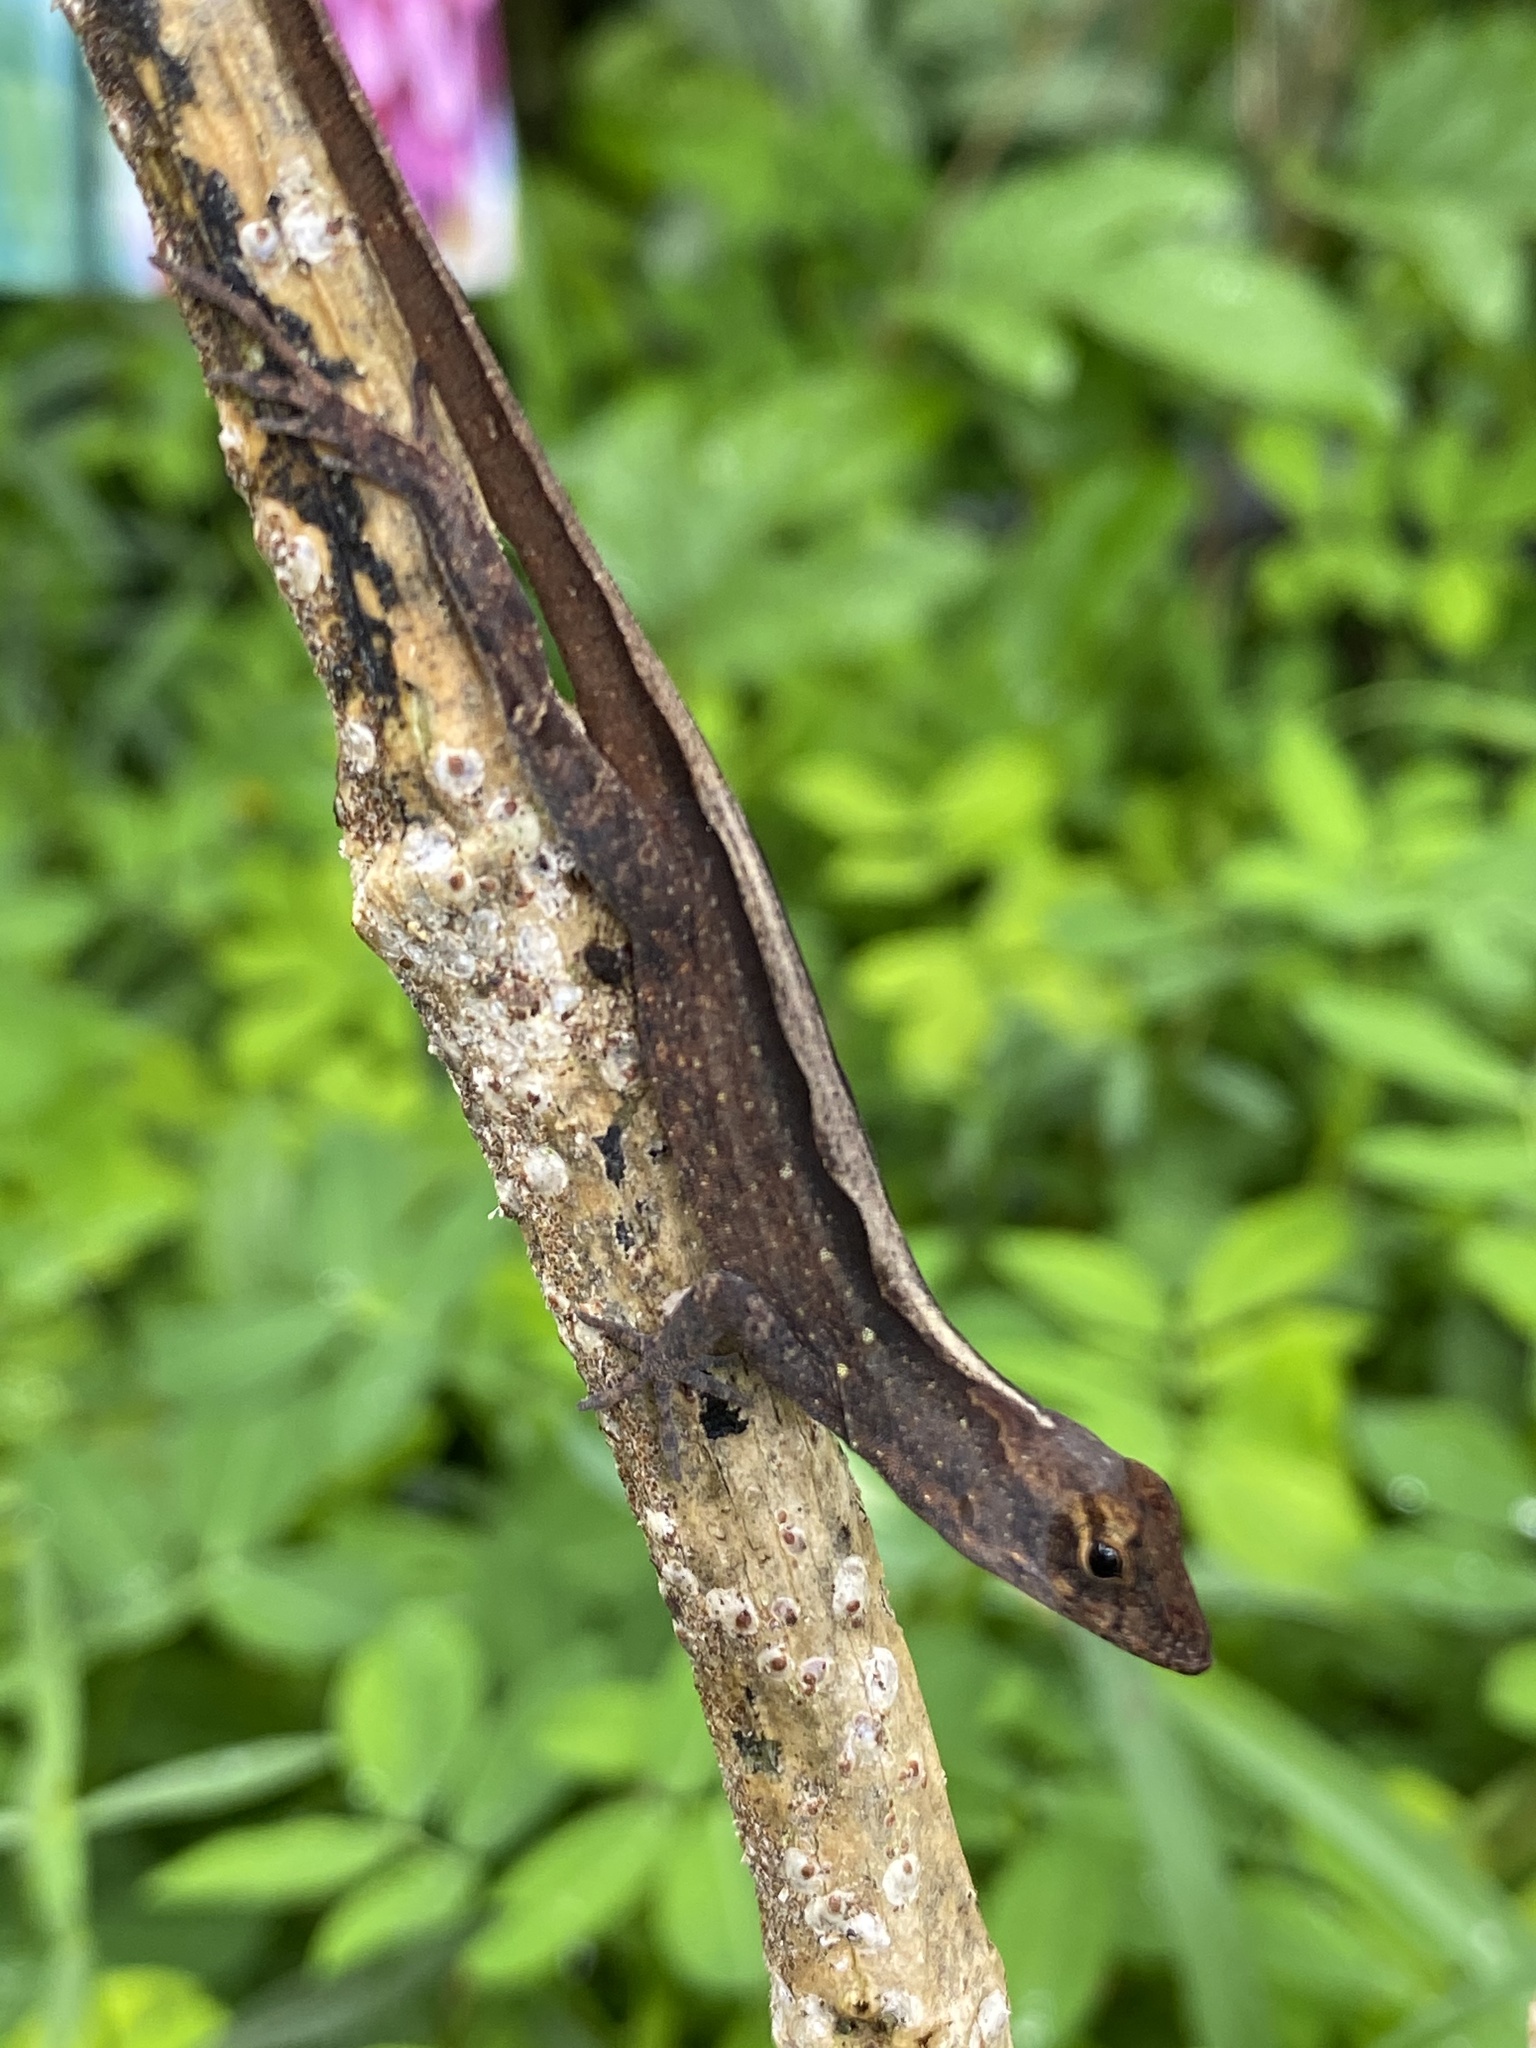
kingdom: Animalia
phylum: Chordata
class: Squamata
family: Dactyloidae
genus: Anolis
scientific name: Anolis sagrei
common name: Brown anole
